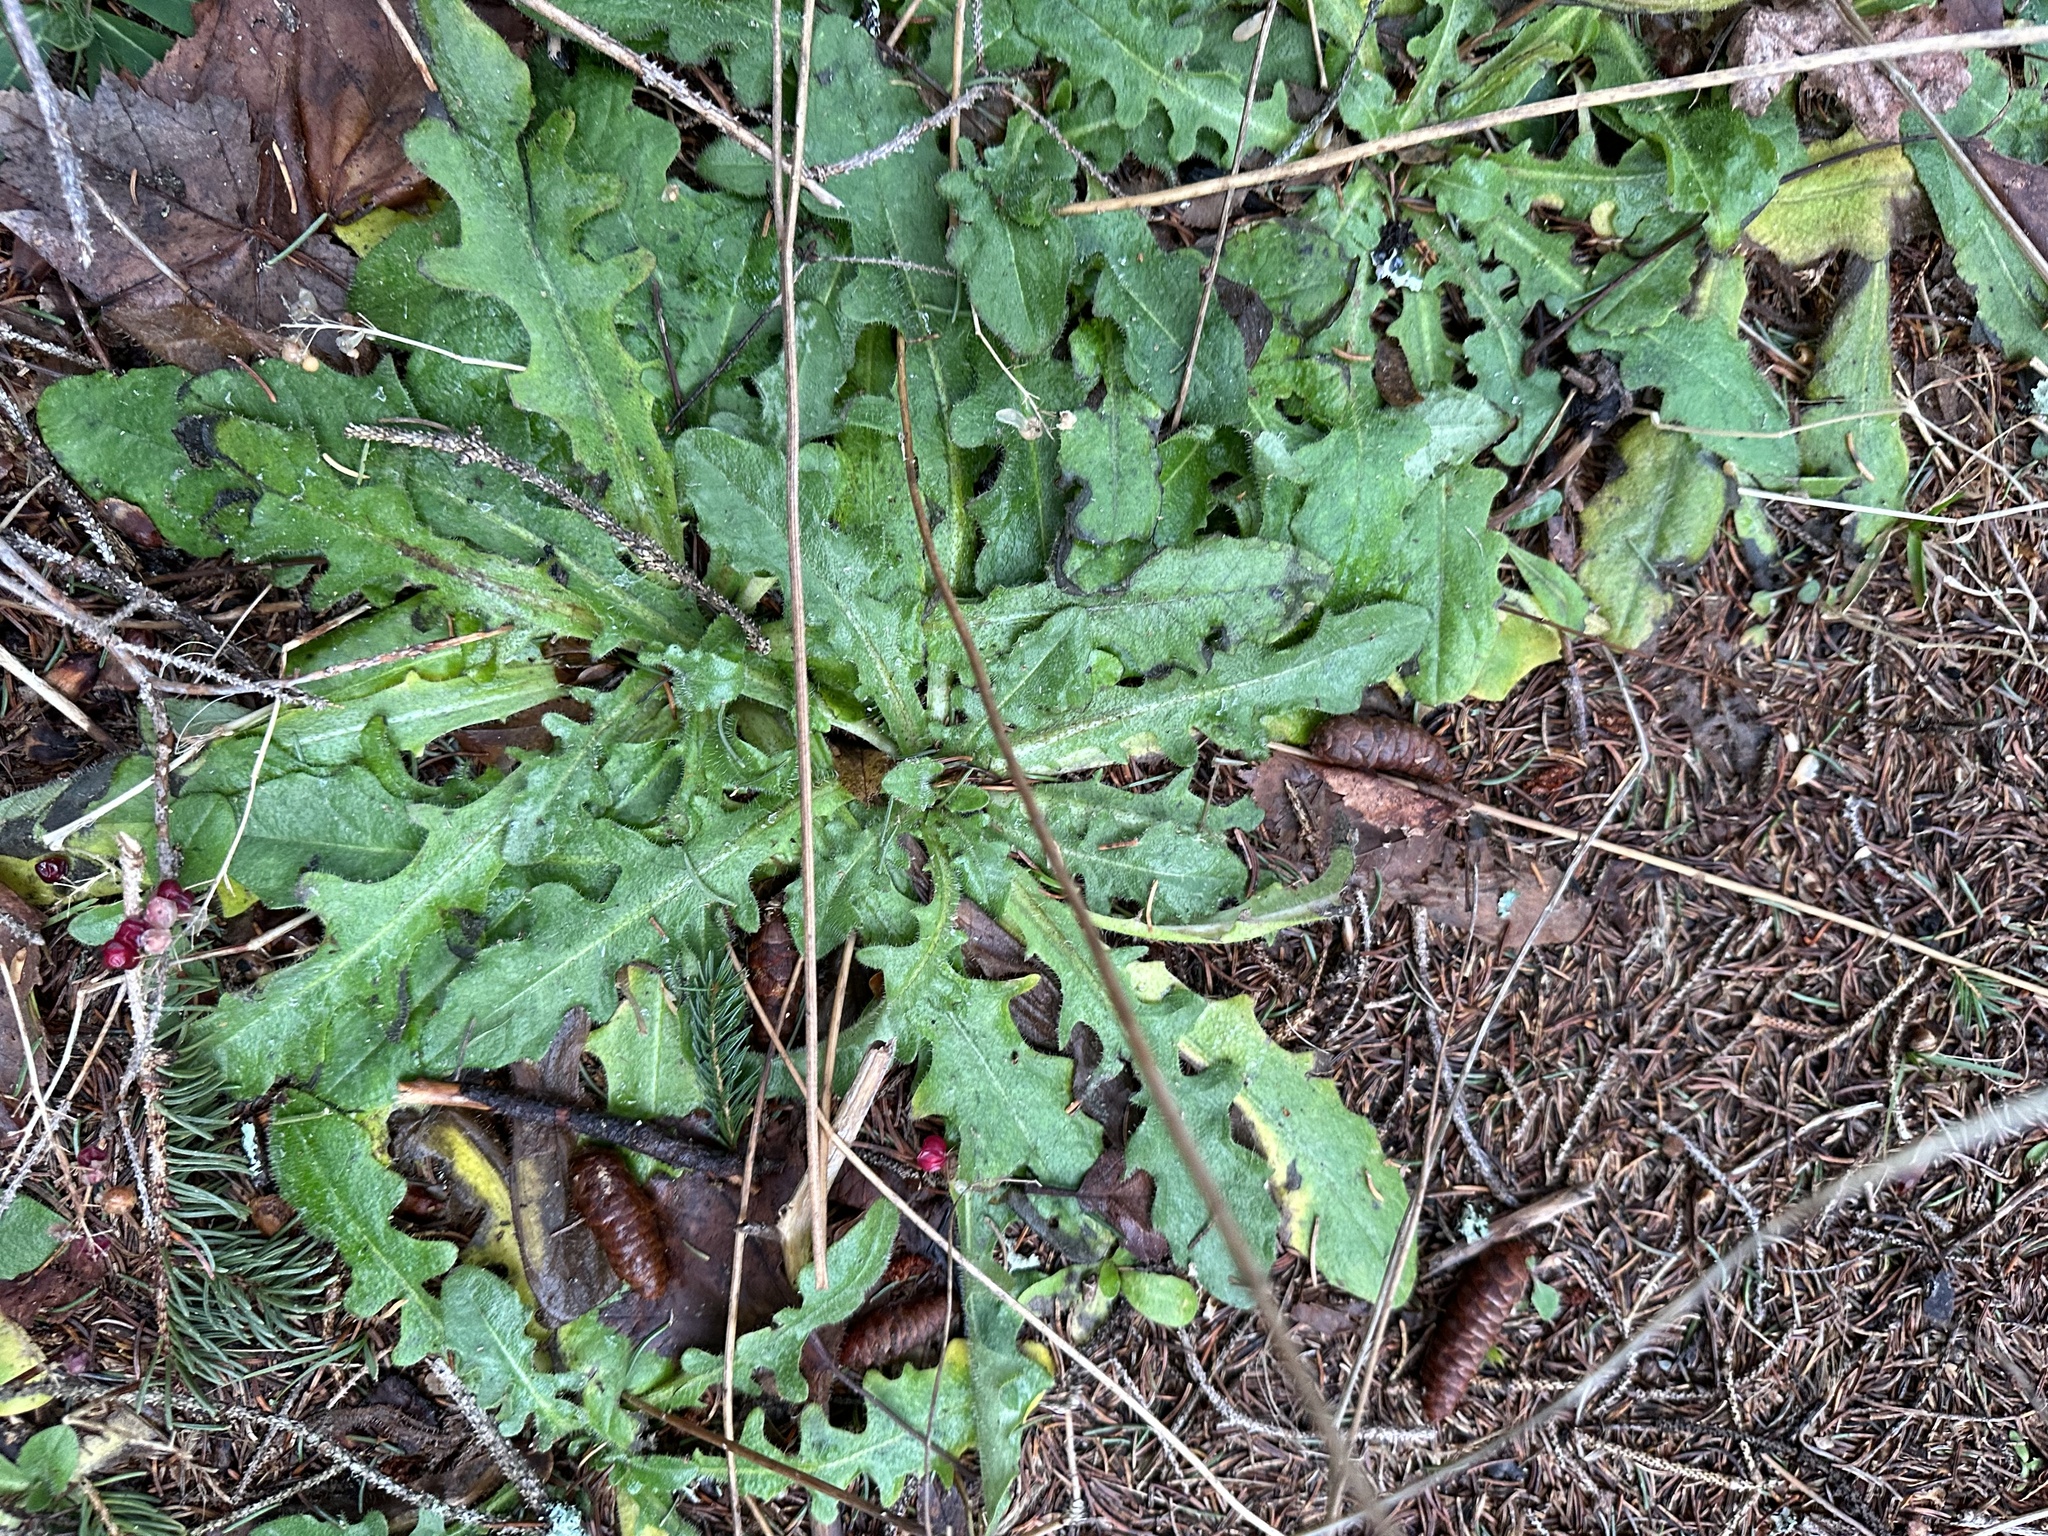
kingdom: Plantae
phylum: Tracheophyta
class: Magnoliopsida
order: Asterales
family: Asteraceae
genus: Hypochaeris
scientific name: Hypochaeris radicata
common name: Flatweed
